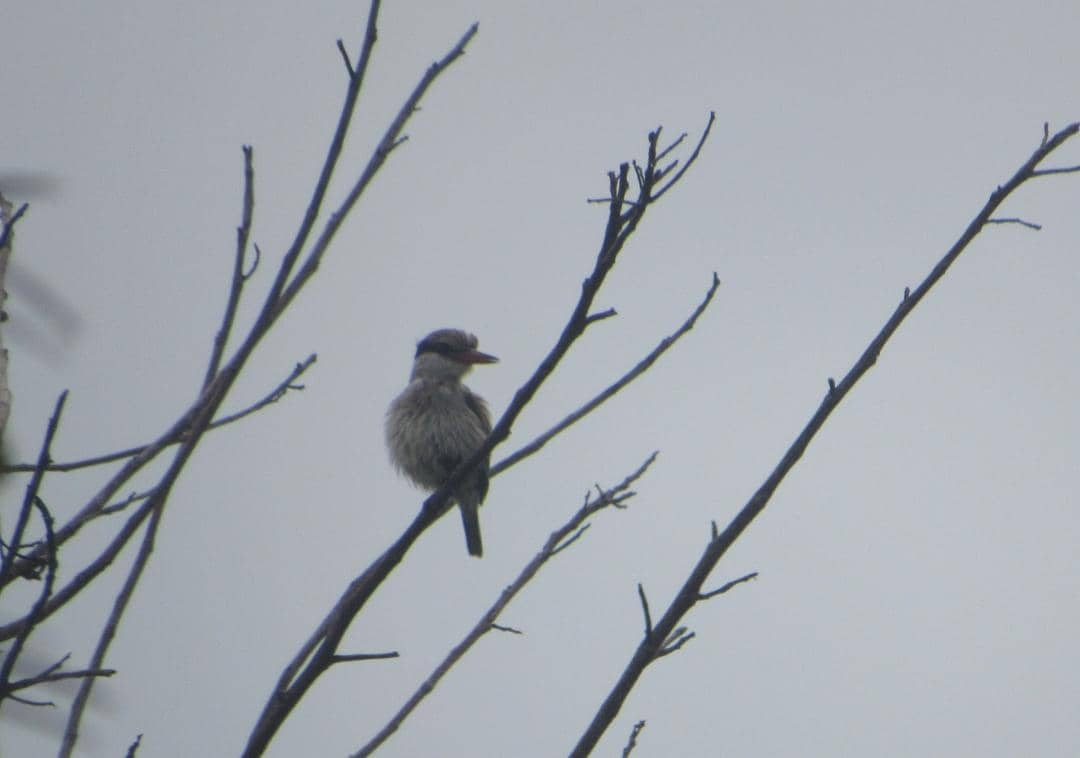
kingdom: Animalia
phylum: Chordata
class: Aves
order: Coraciiformes
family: Alcedinidae
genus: Halcyon
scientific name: Halcyon chelicuti
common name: Striped kingfisher
